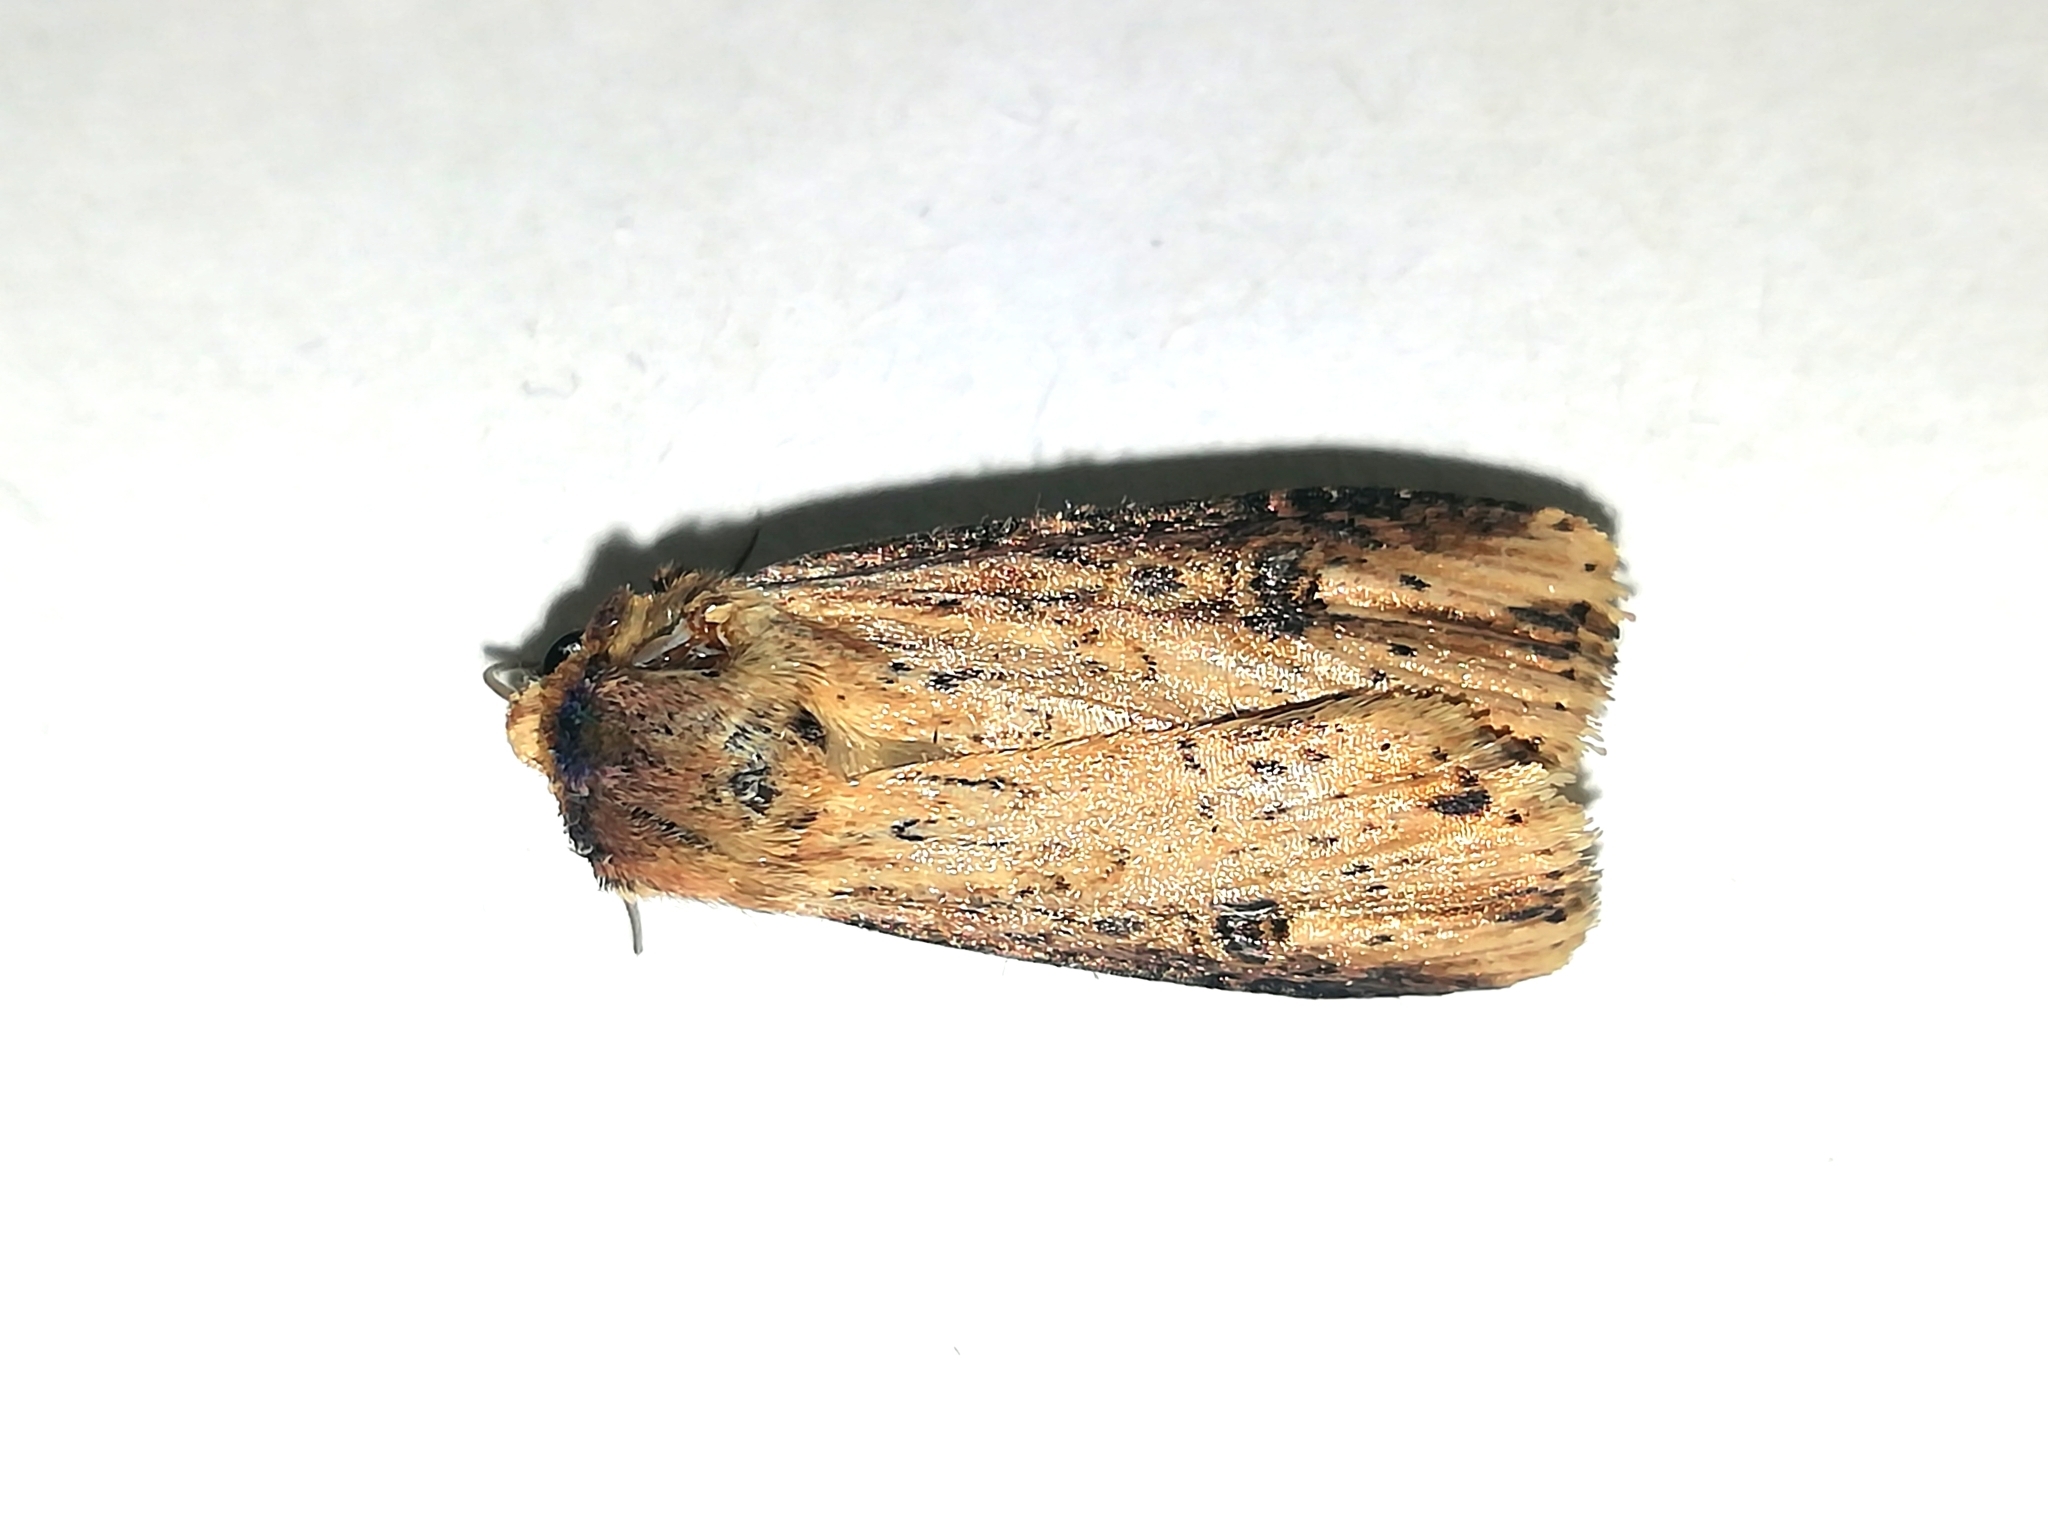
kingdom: Animalia
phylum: Arthropoda
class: Insecta
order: Lepidoptera
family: Noctuidae
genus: Axylia
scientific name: Axylia putris
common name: Flame
